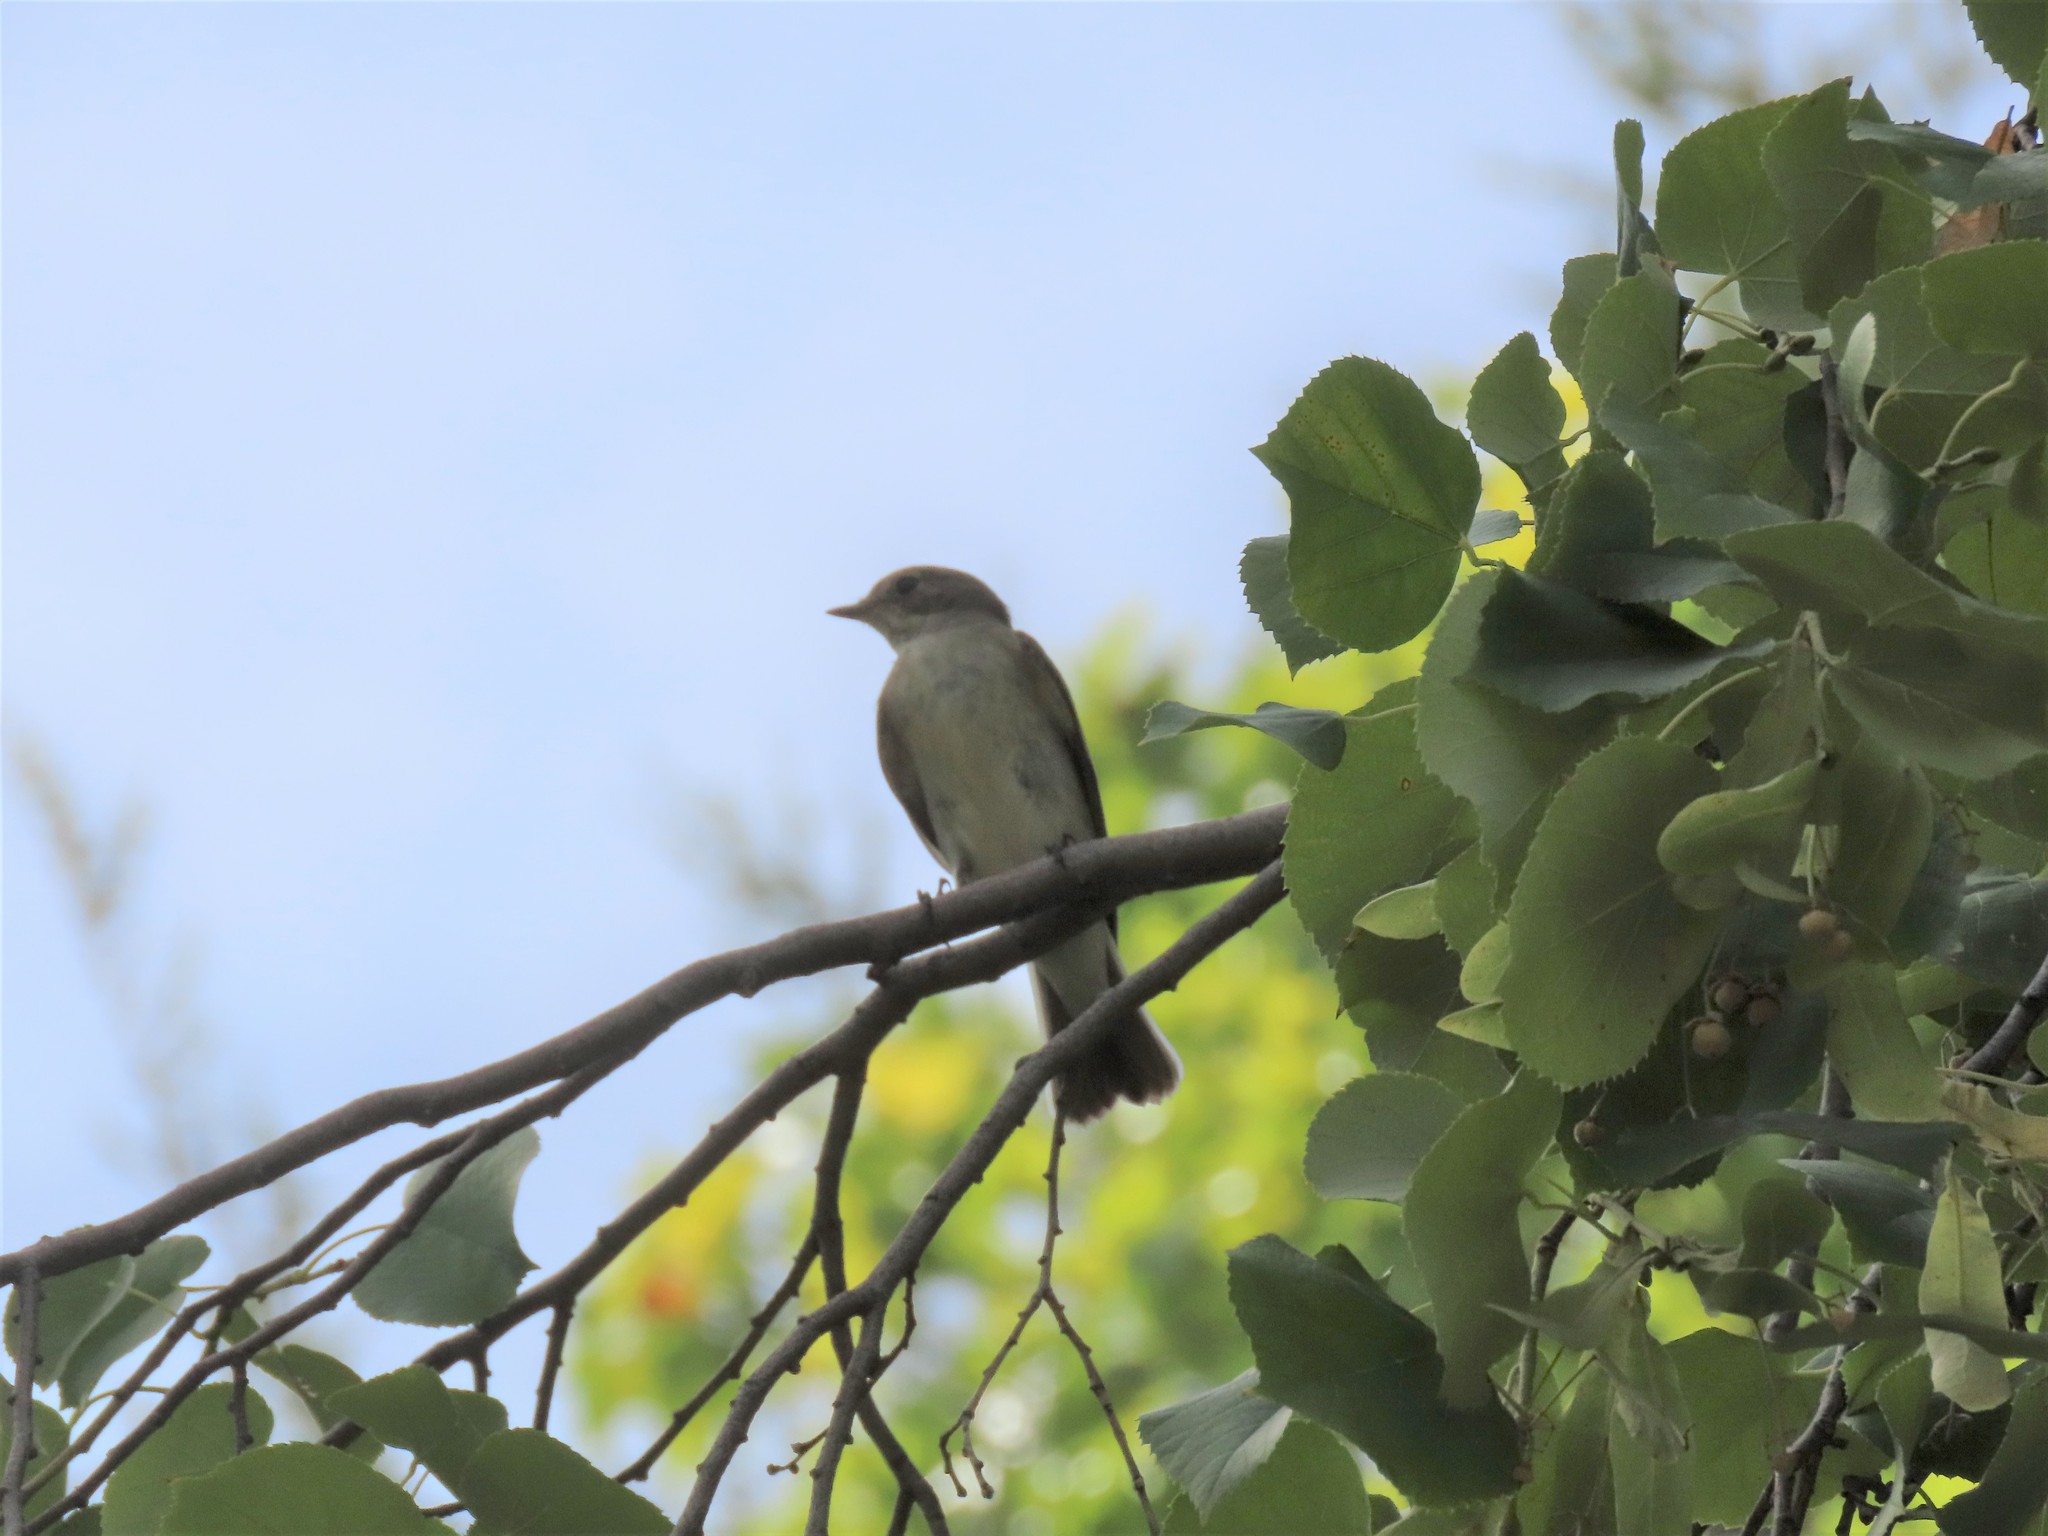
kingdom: Animalia
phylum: Chordata
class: Aves
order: Passeriformes
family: Muscicapidae
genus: Ficedula
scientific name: Ficedula hypoleuca
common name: European pied flycatcher
